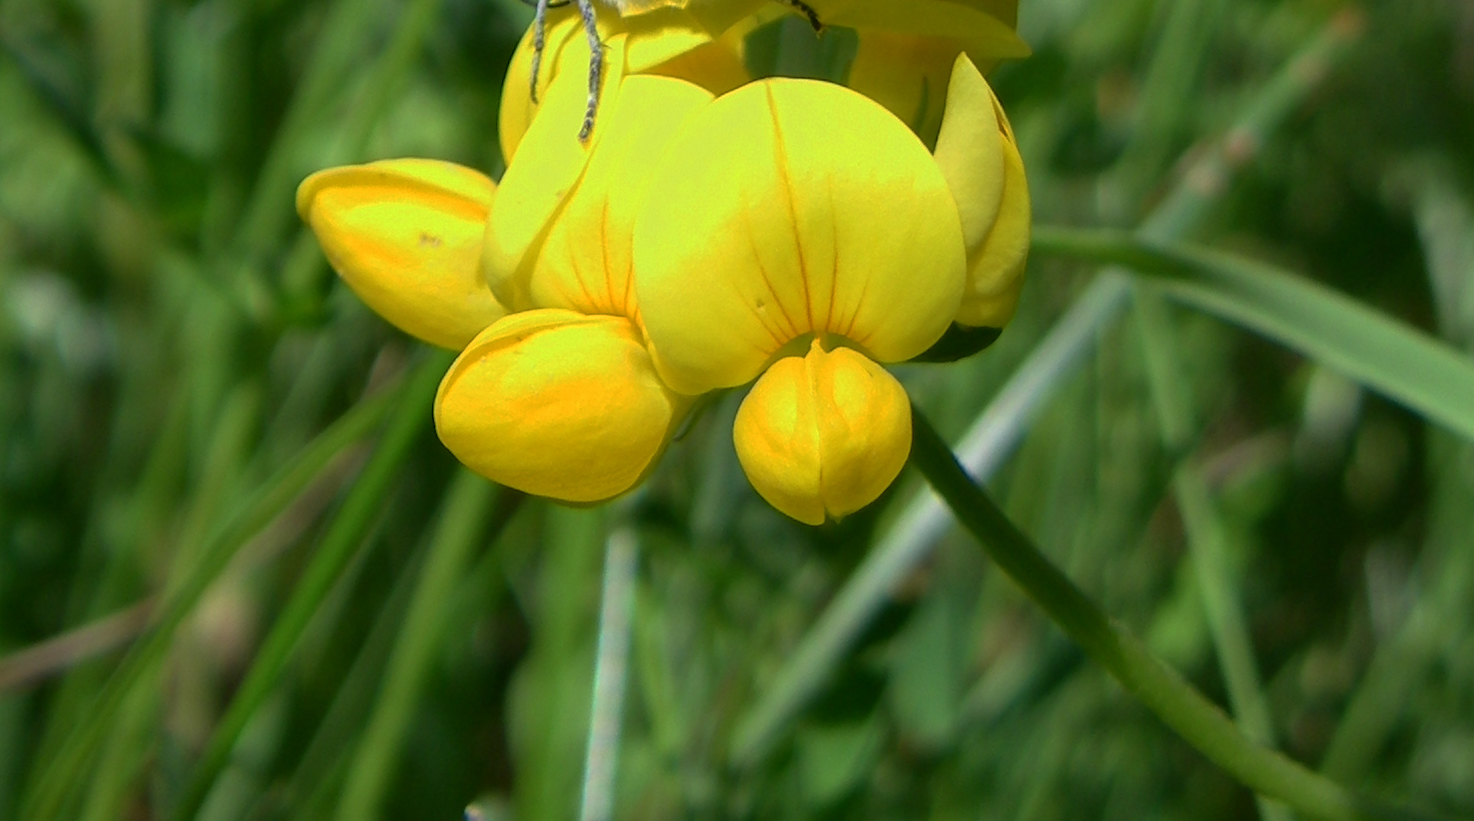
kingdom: Plantae
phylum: Tracheophyta
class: Magnoliopsida
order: Fabales
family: Fabaceae
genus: Lotus
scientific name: Lotus corniculatus
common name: Common bird's-foot-trefoil
